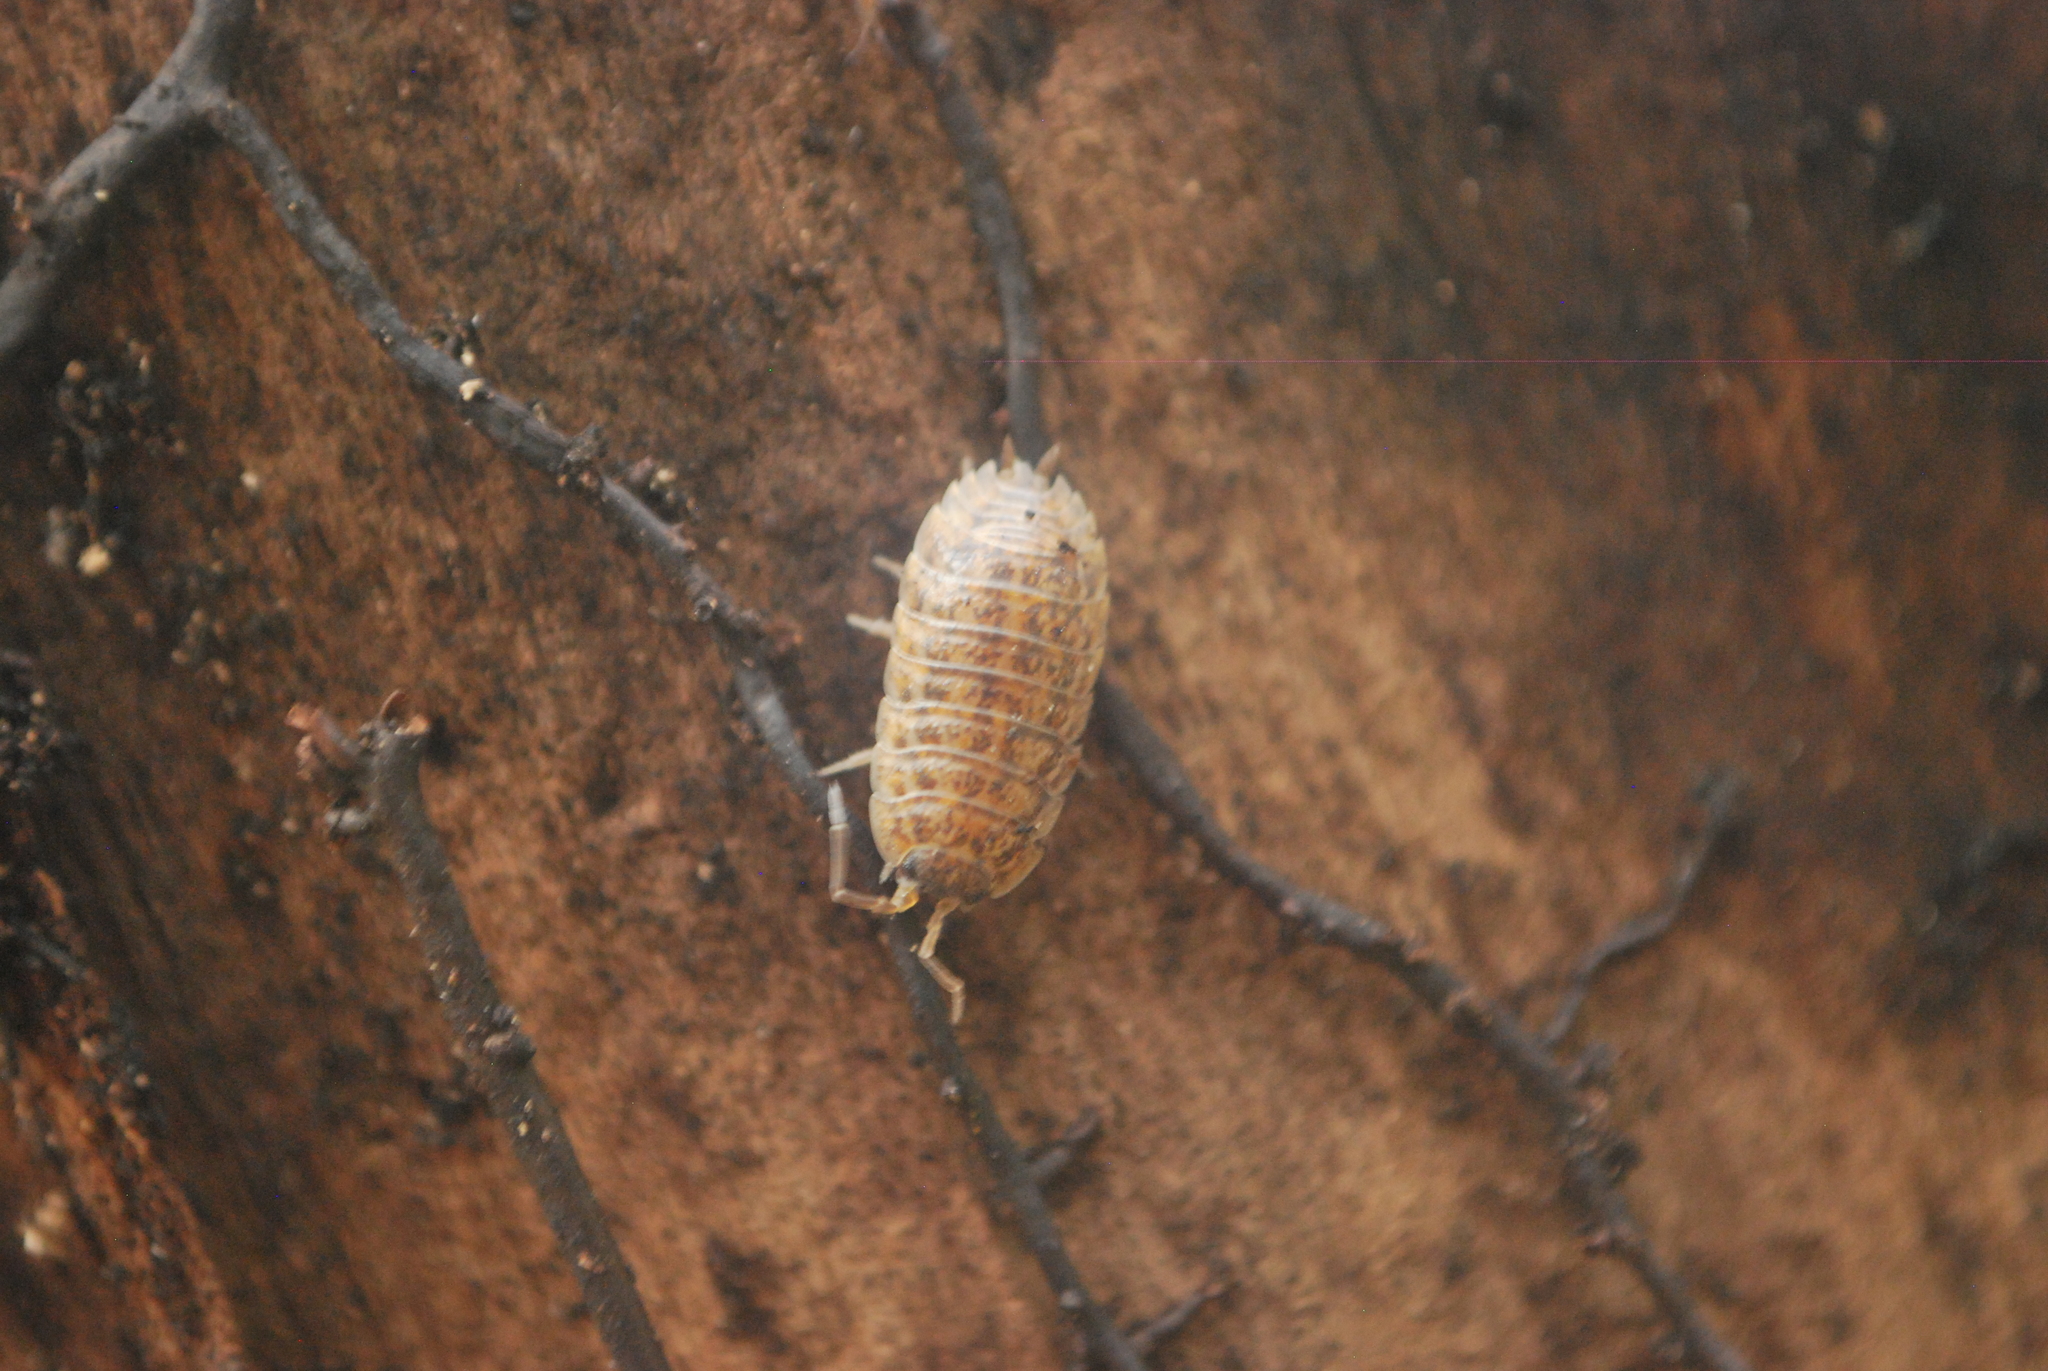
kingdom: Animalia
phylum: Arthropoda
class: Malacostraca
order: Isopoda
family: Trachelipodidae
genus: Trachelipus
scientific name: Trachelipus rathkii
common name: Isopod
